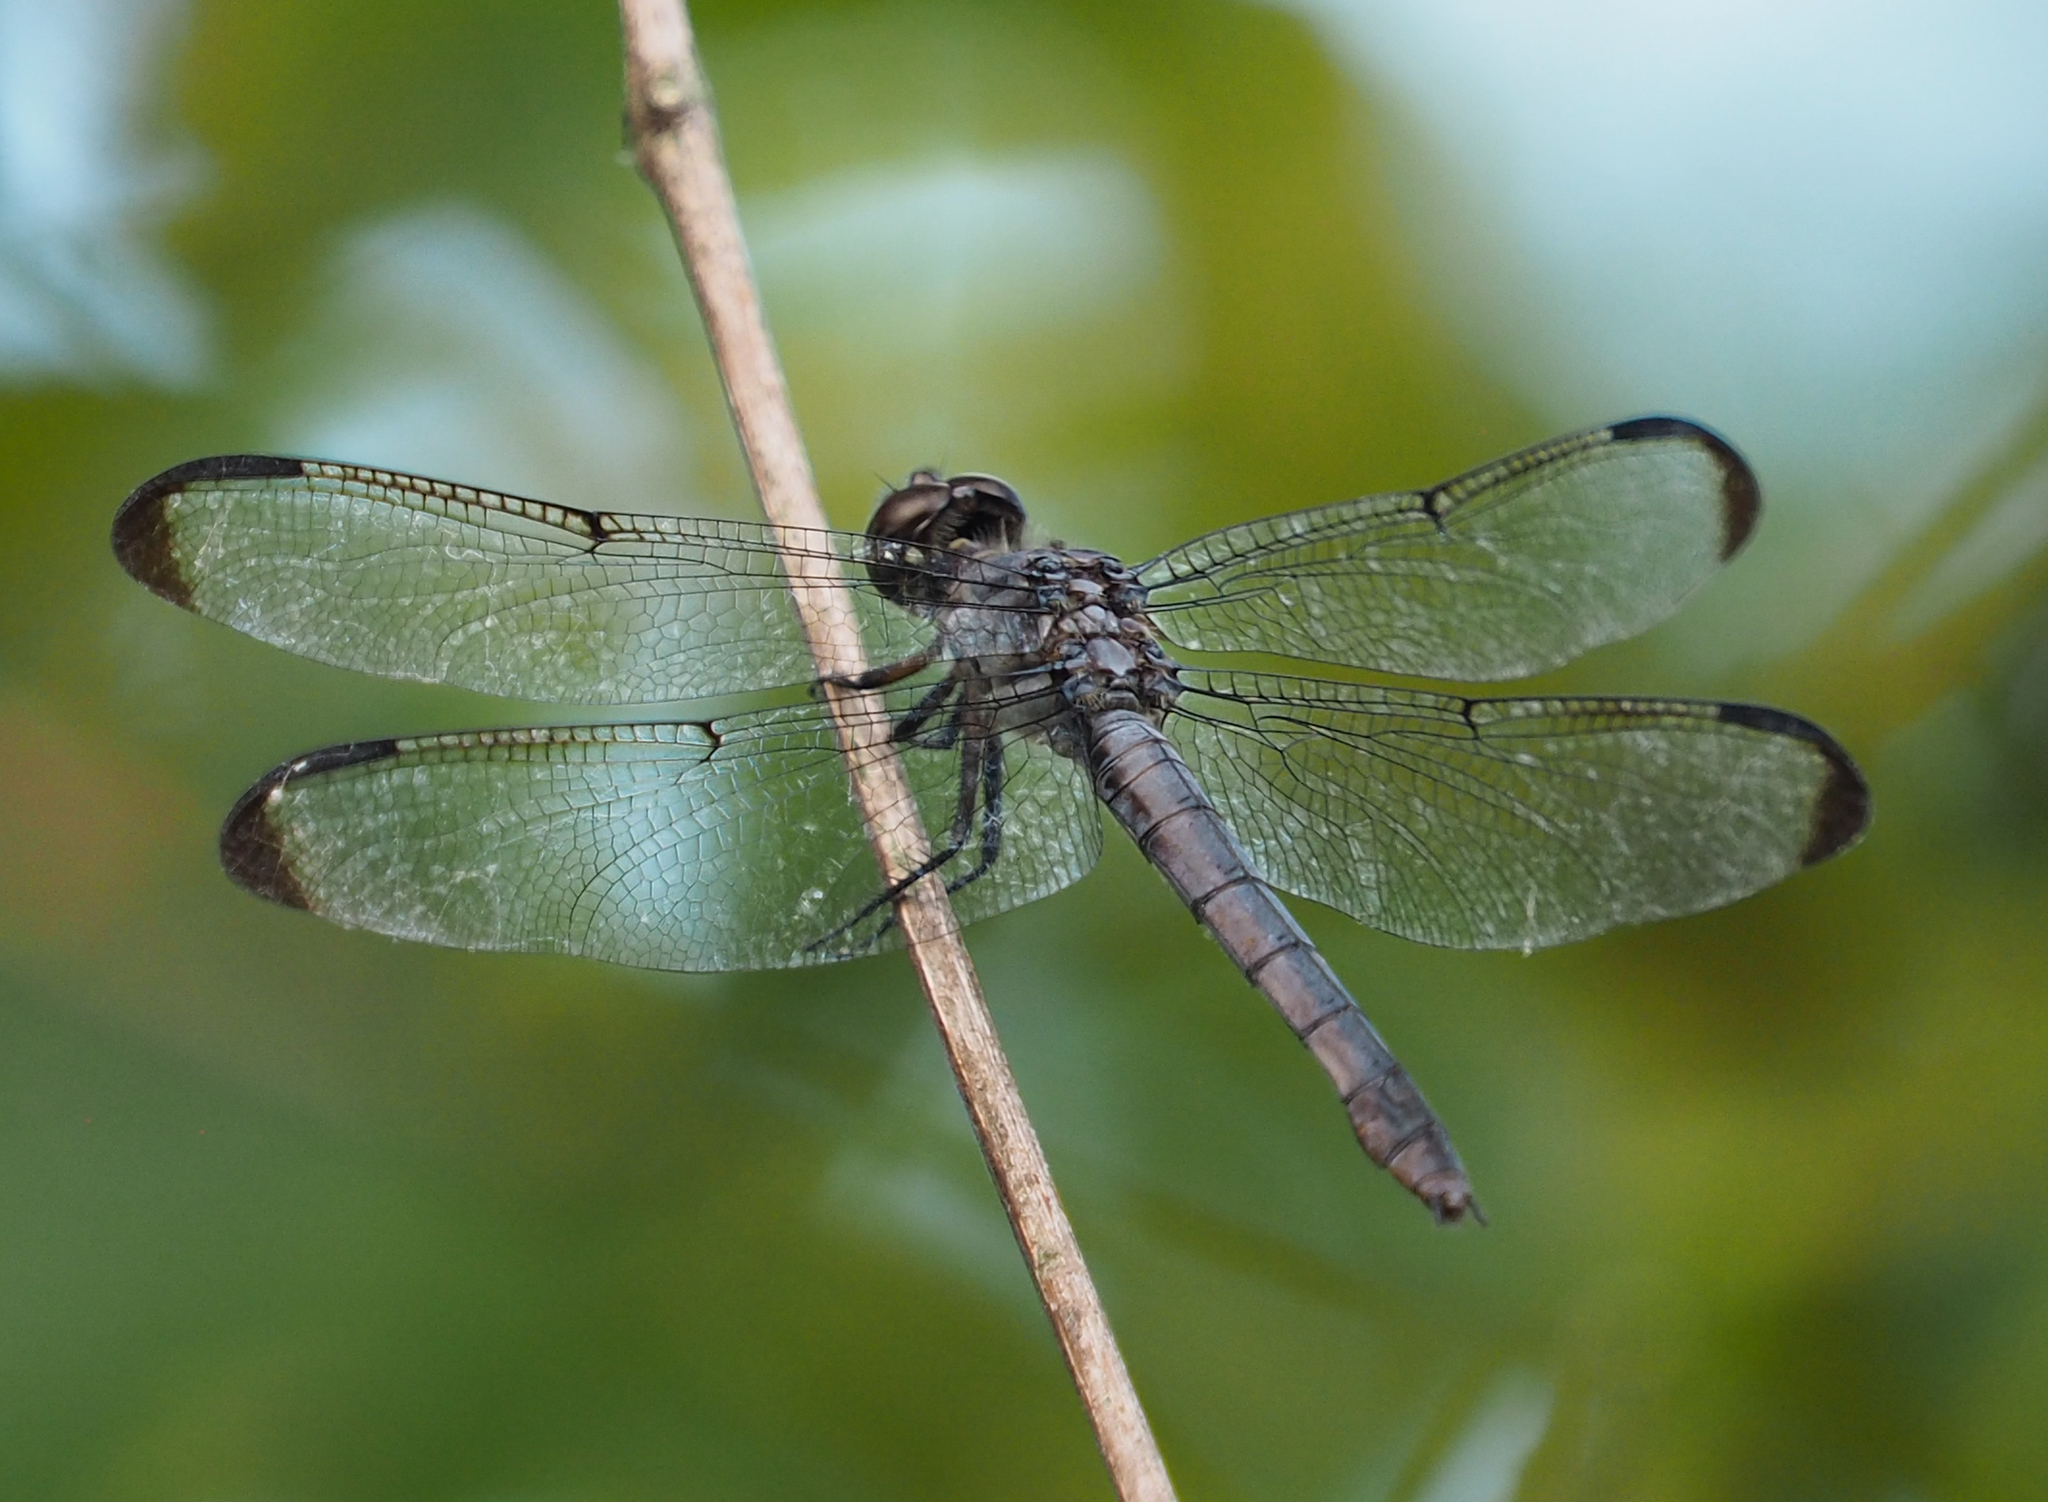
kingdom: Animalia
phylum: Arthropoda
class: Insecta
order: Odonata
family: Libellulidae
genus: Libellula
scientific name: Libellula incesta
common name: Slaty skimmer
